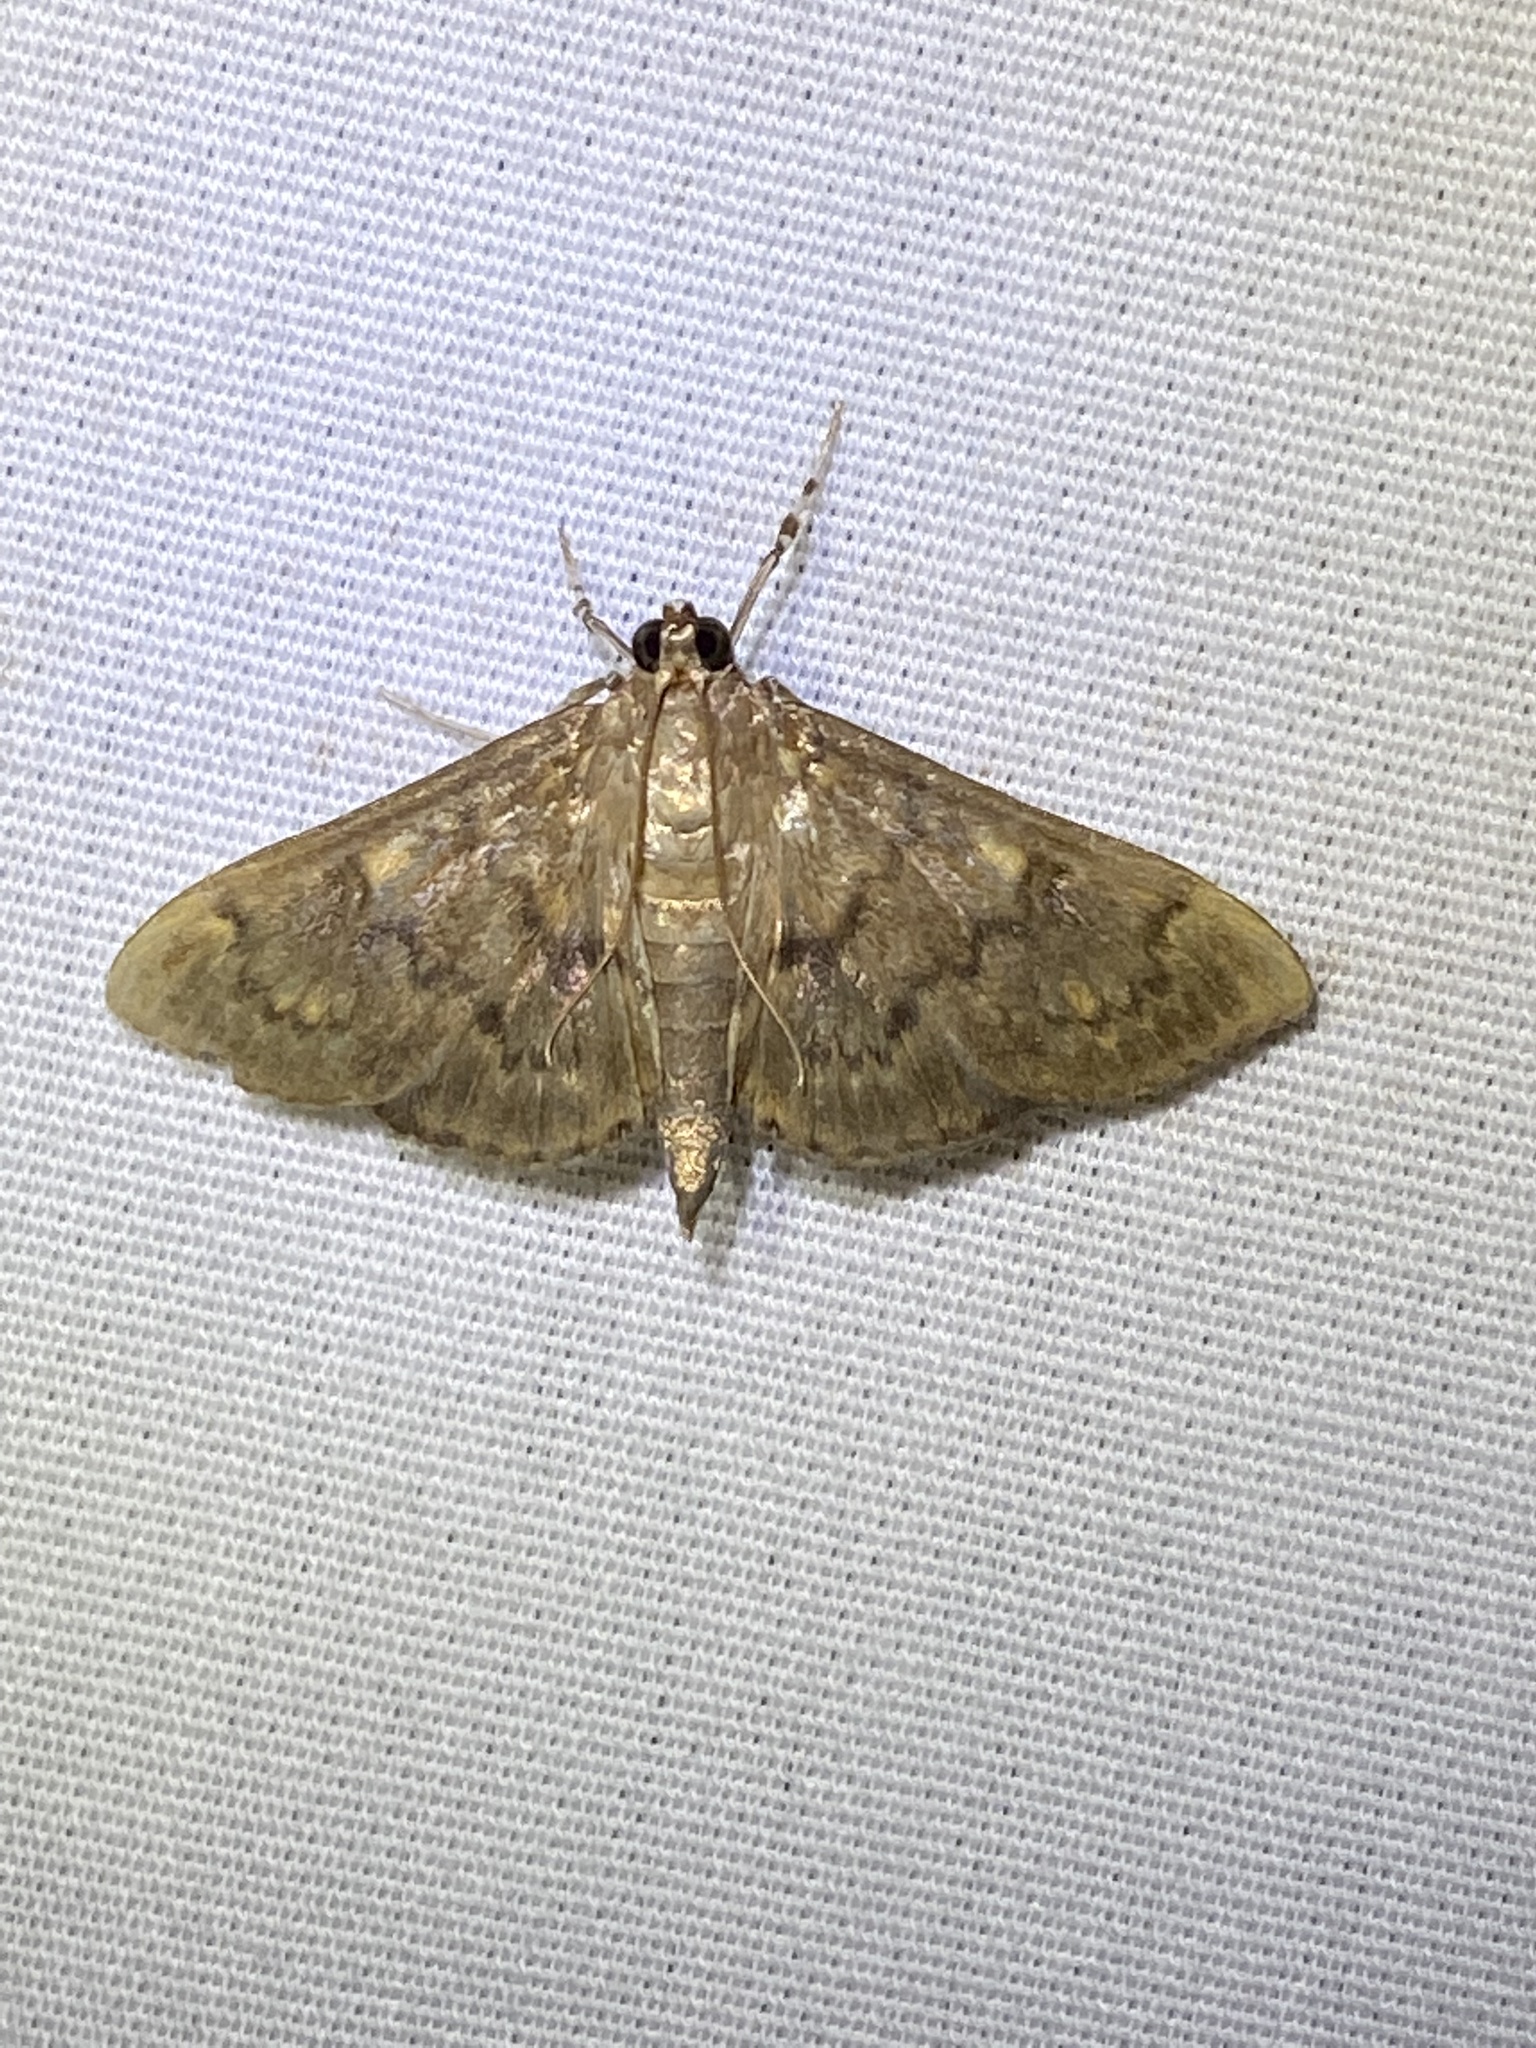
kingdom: Animalia
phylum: Arthropoda
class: Insecta
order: Lepidoptera
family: Crambidae
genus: Syllepte
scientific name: Syllepte obscuralis
